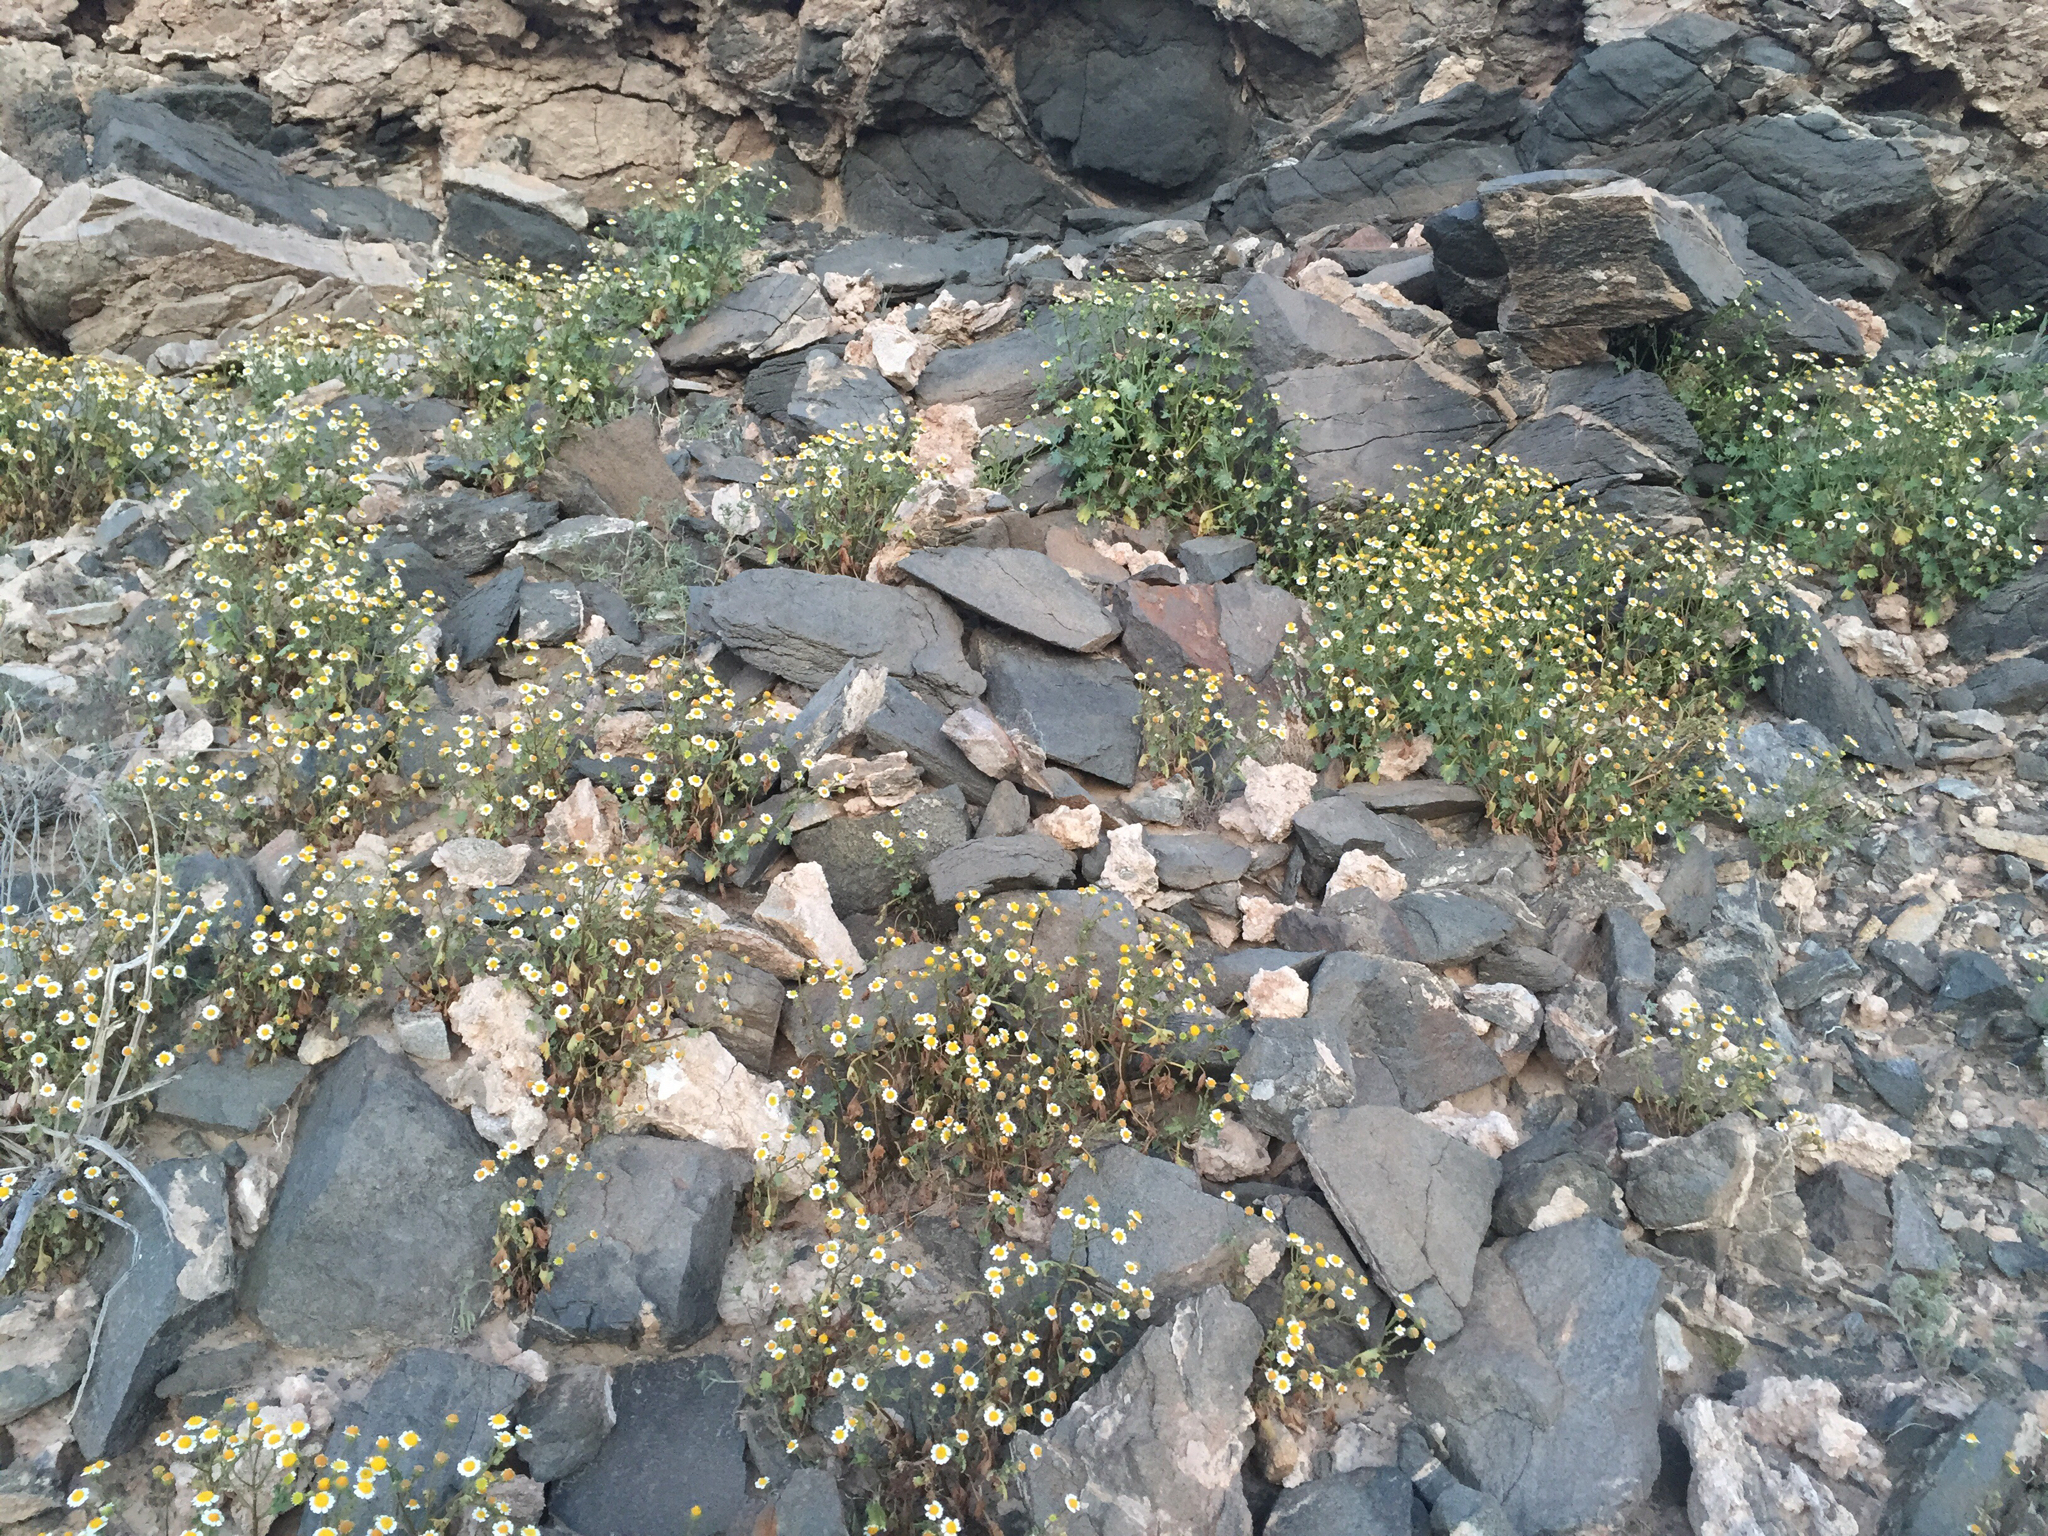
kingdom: Plantae
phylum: Tracheophyta
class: Magnoliopsida
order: Asterales
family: Asteraceae
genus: Laphamia
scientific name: Laphamia emoryi
